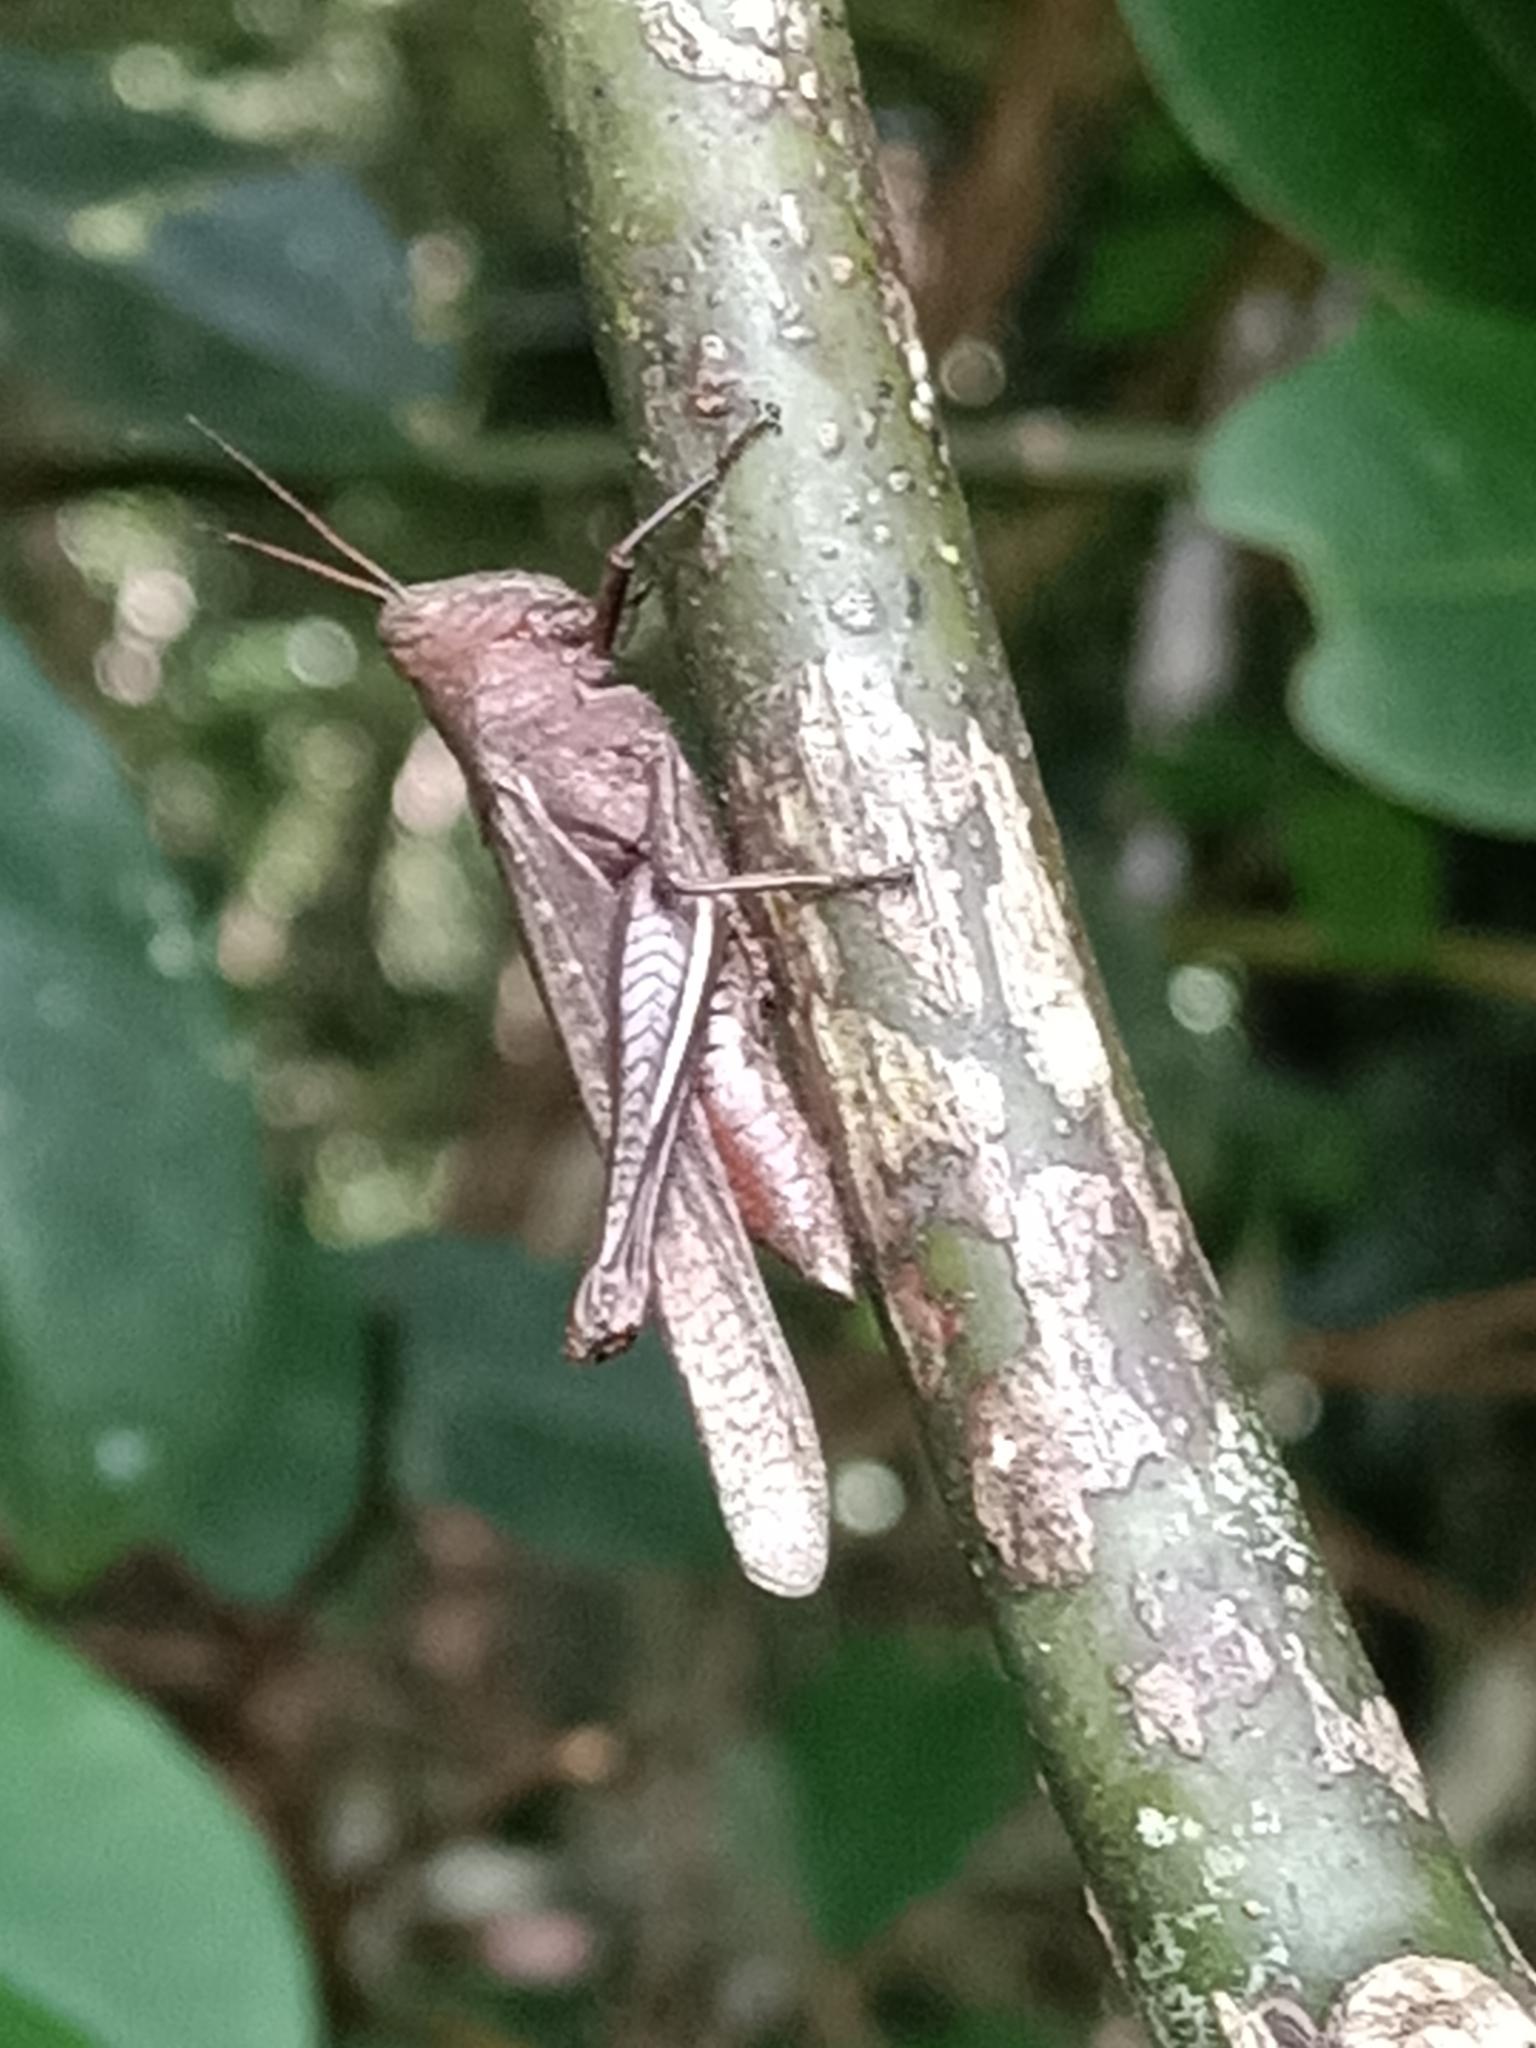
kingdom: Animalia
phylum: Arthropoda
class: Insecta
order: Orthoptera
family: Acrididae
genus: Abracris
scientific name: Abracris flavolineata
